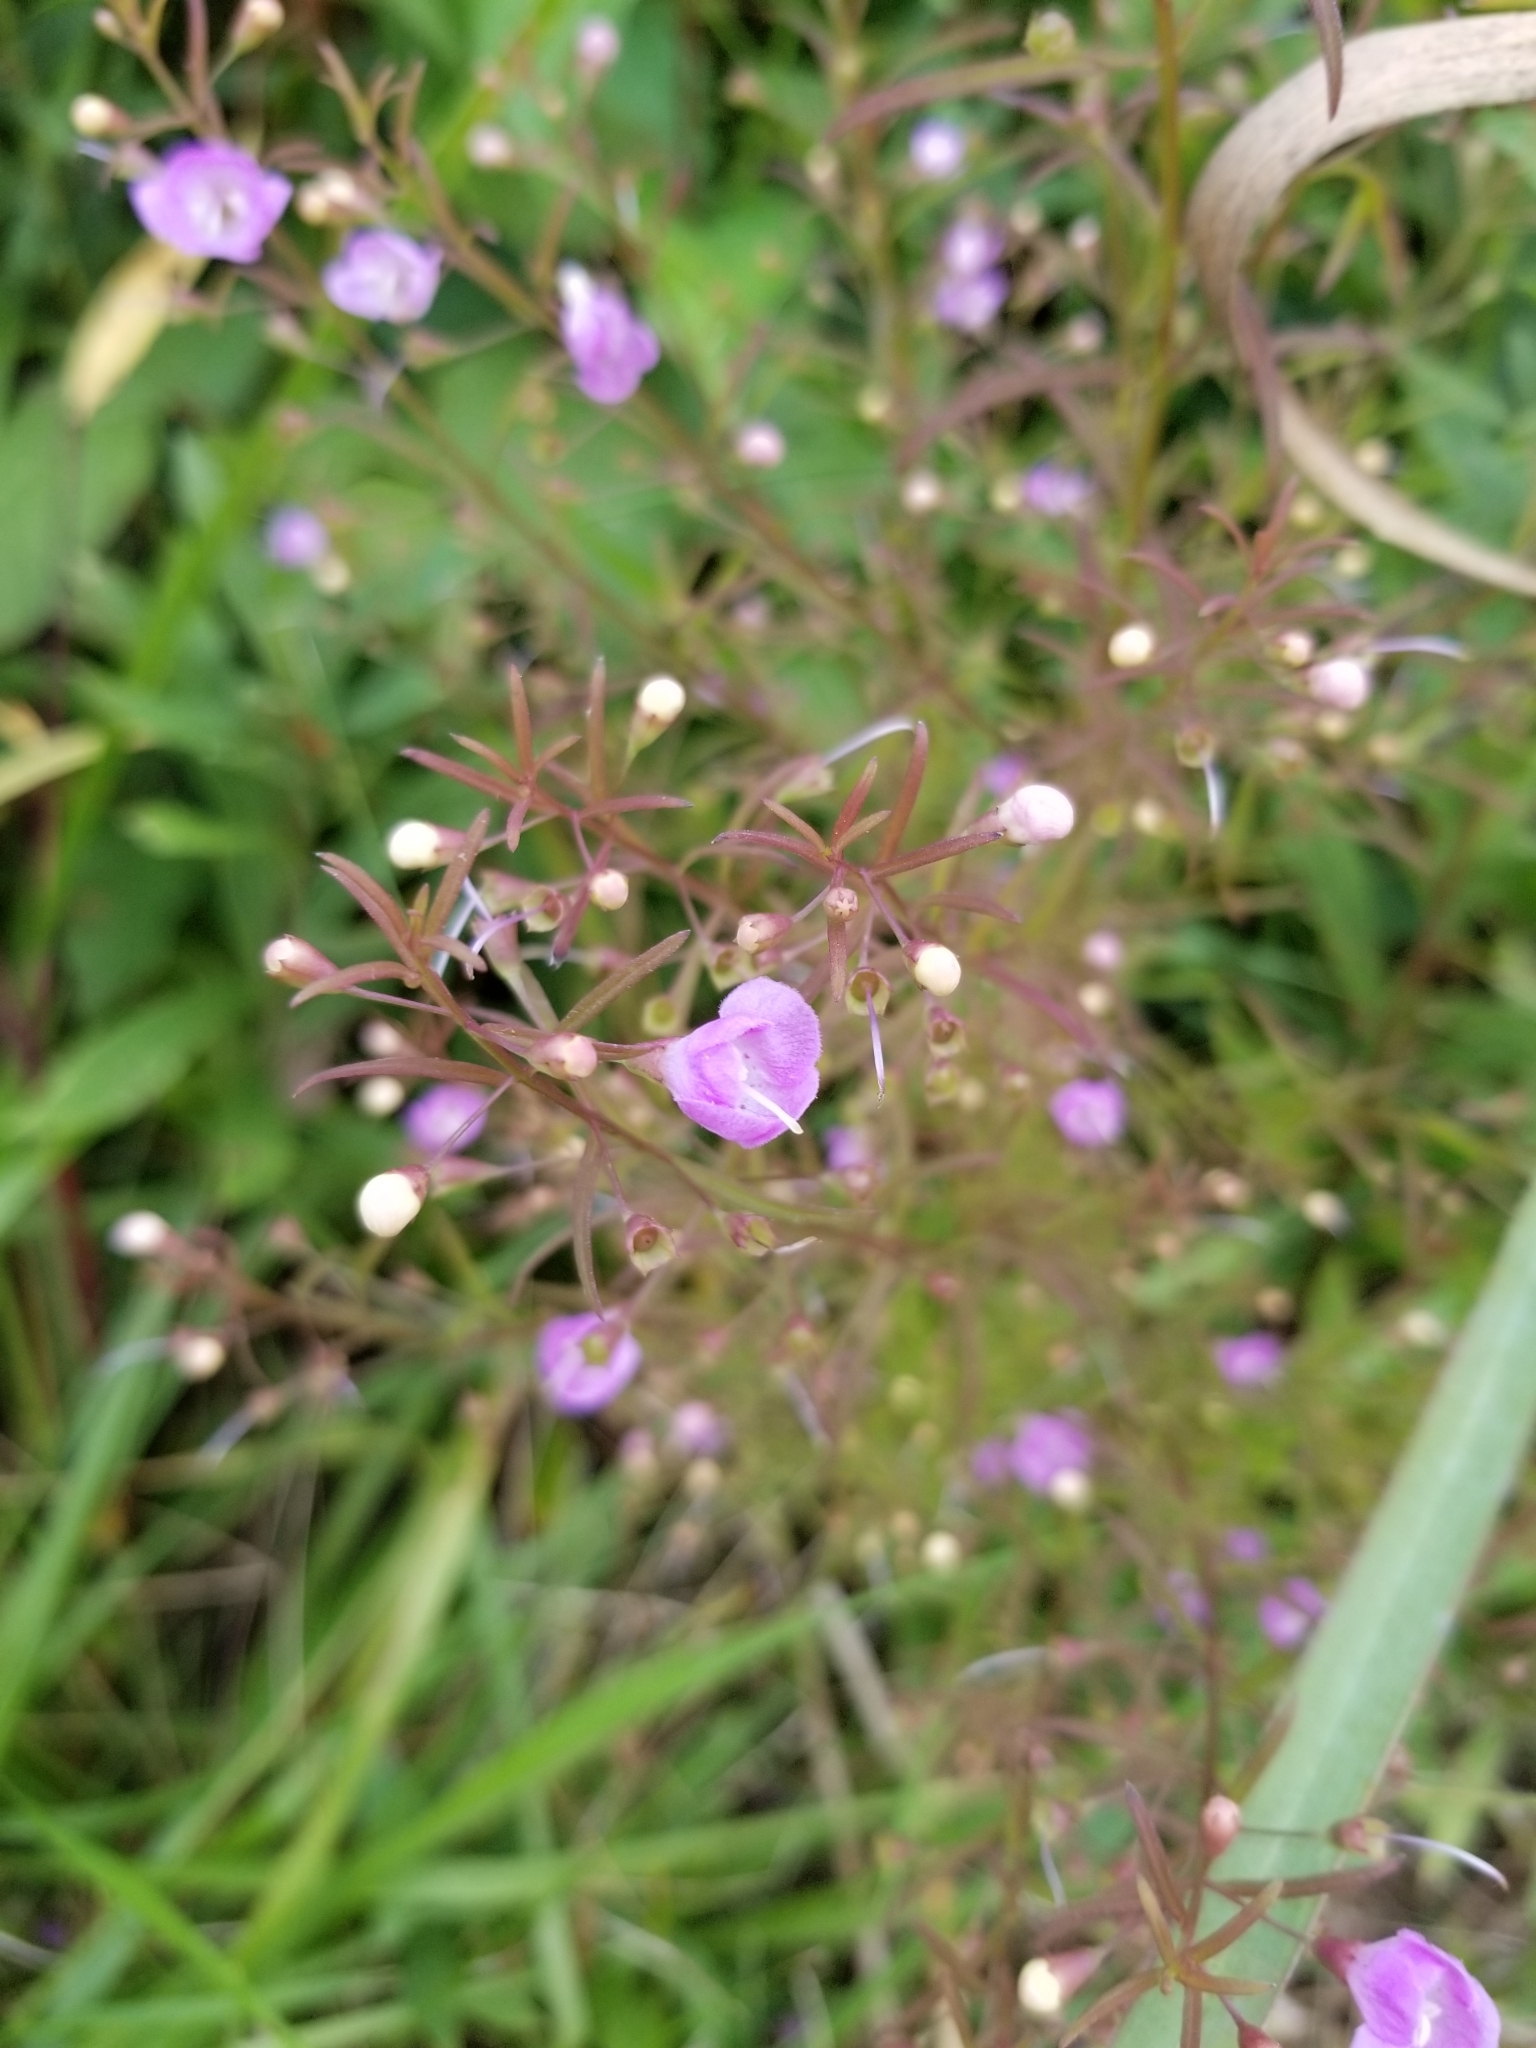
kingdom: Plantae
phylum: Tracheophyta
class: Magnoliopsida
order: Lamiales
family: Orobanchaceae
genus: Agalinis
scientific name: Agalinis tenuifolia
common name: Slender agalinis
